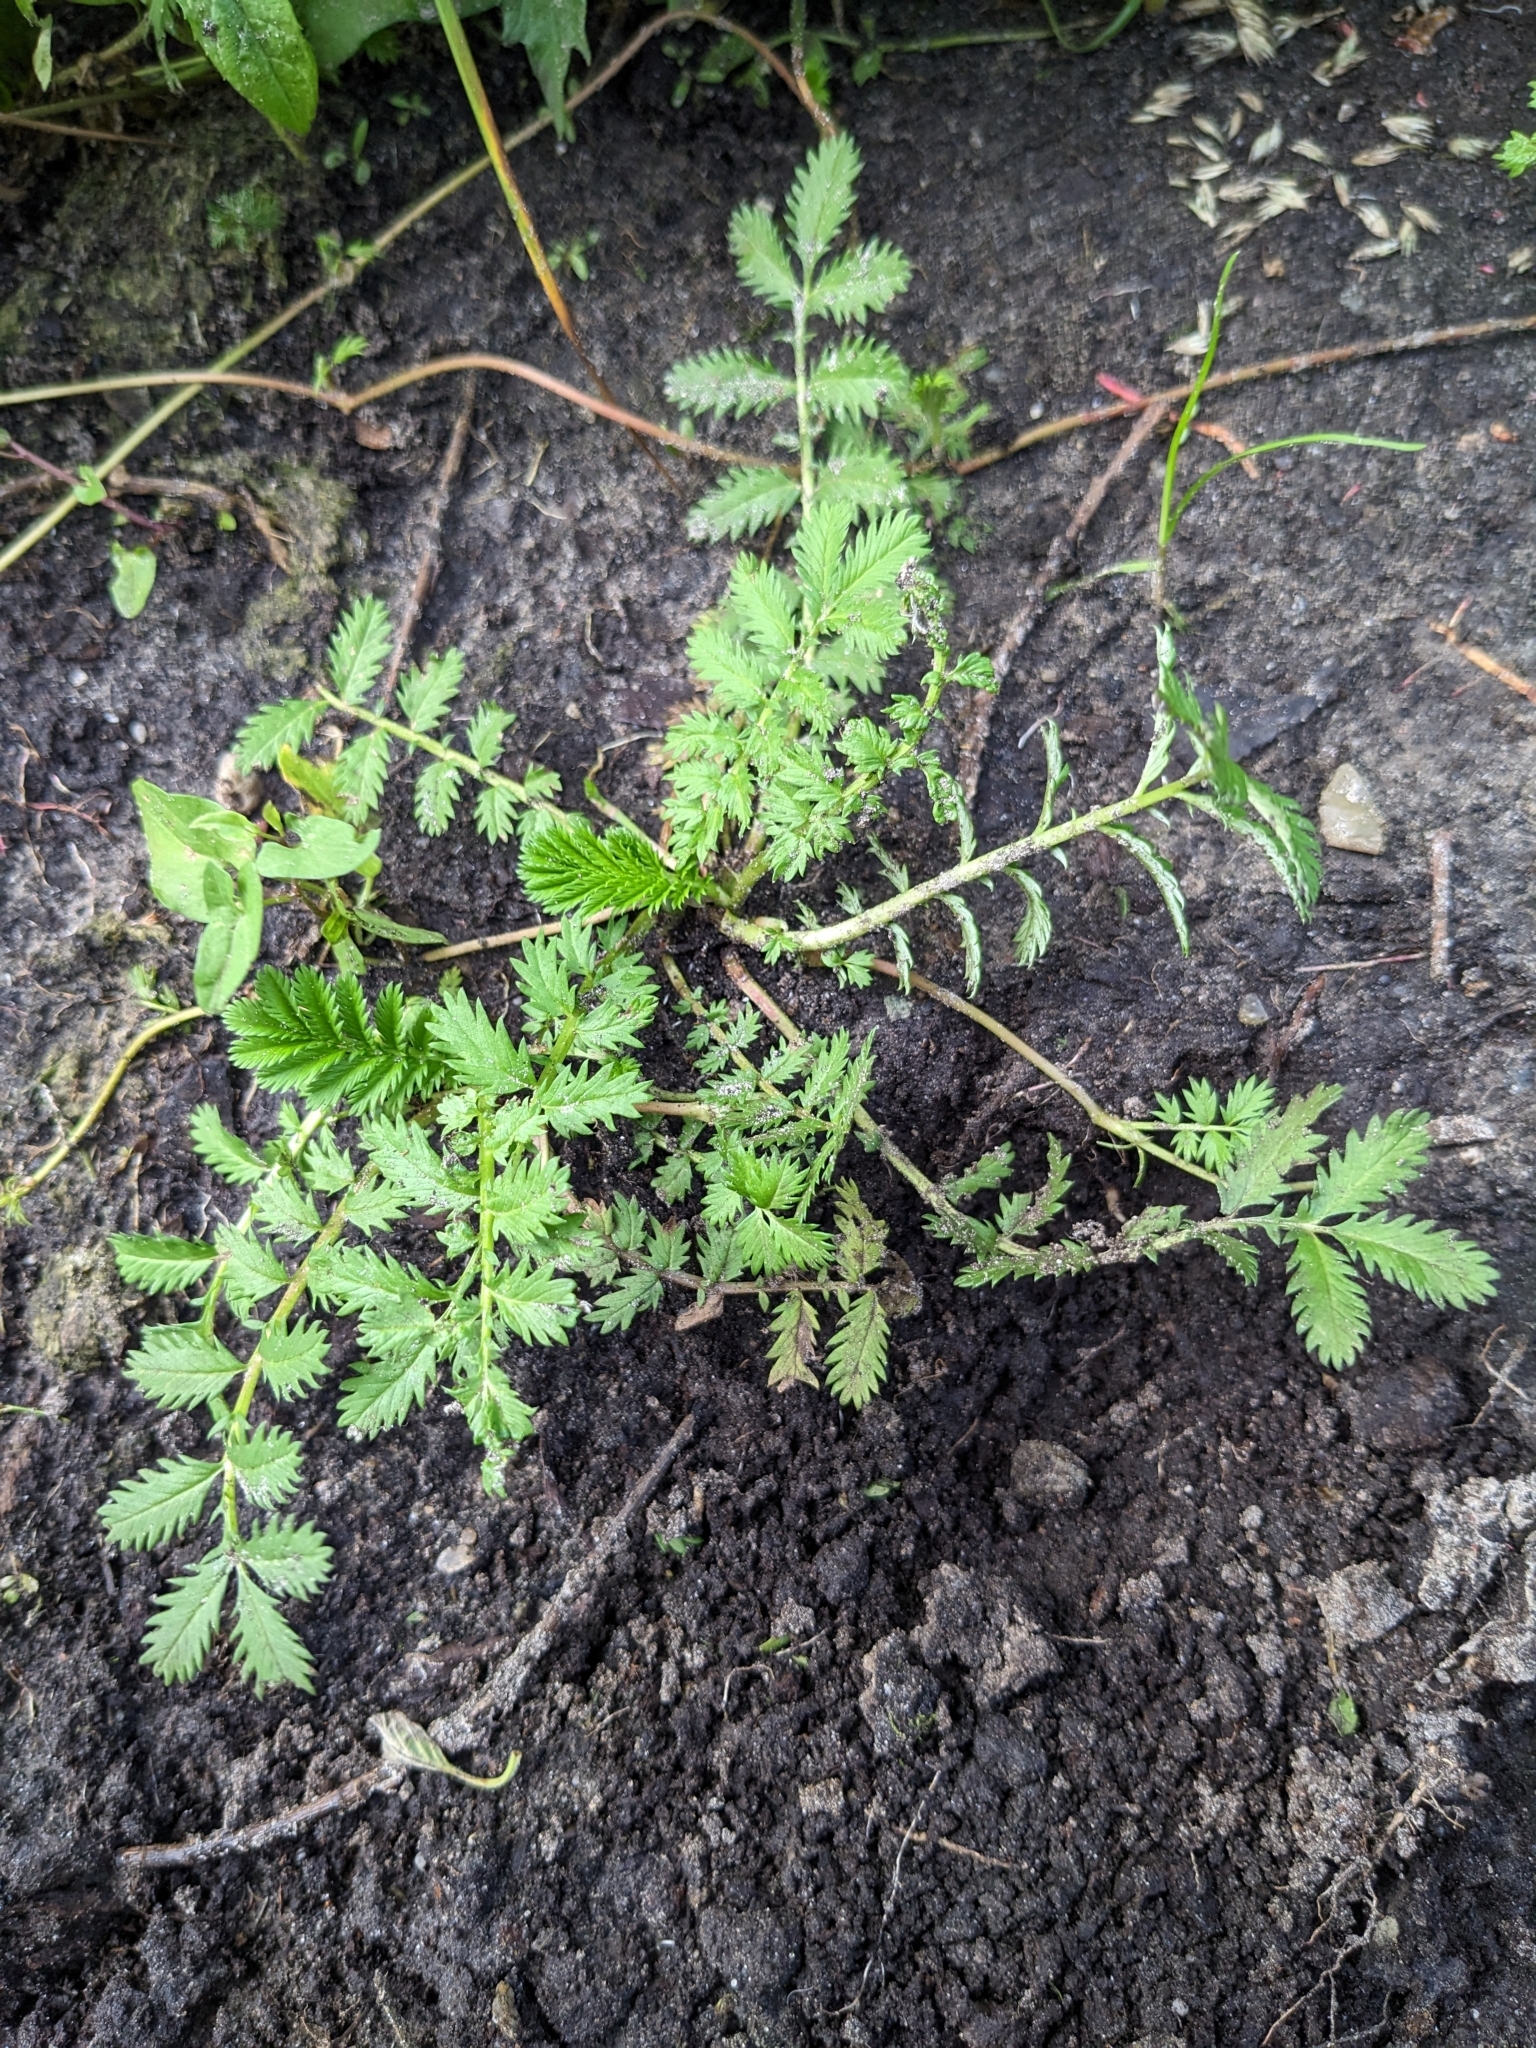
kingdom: Plantae
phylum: Tracheophyta
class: Magnoliopsida
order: Rosales
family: Rosaceae
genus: Argentina
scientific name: Argentina anserina
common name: Common silverweed
